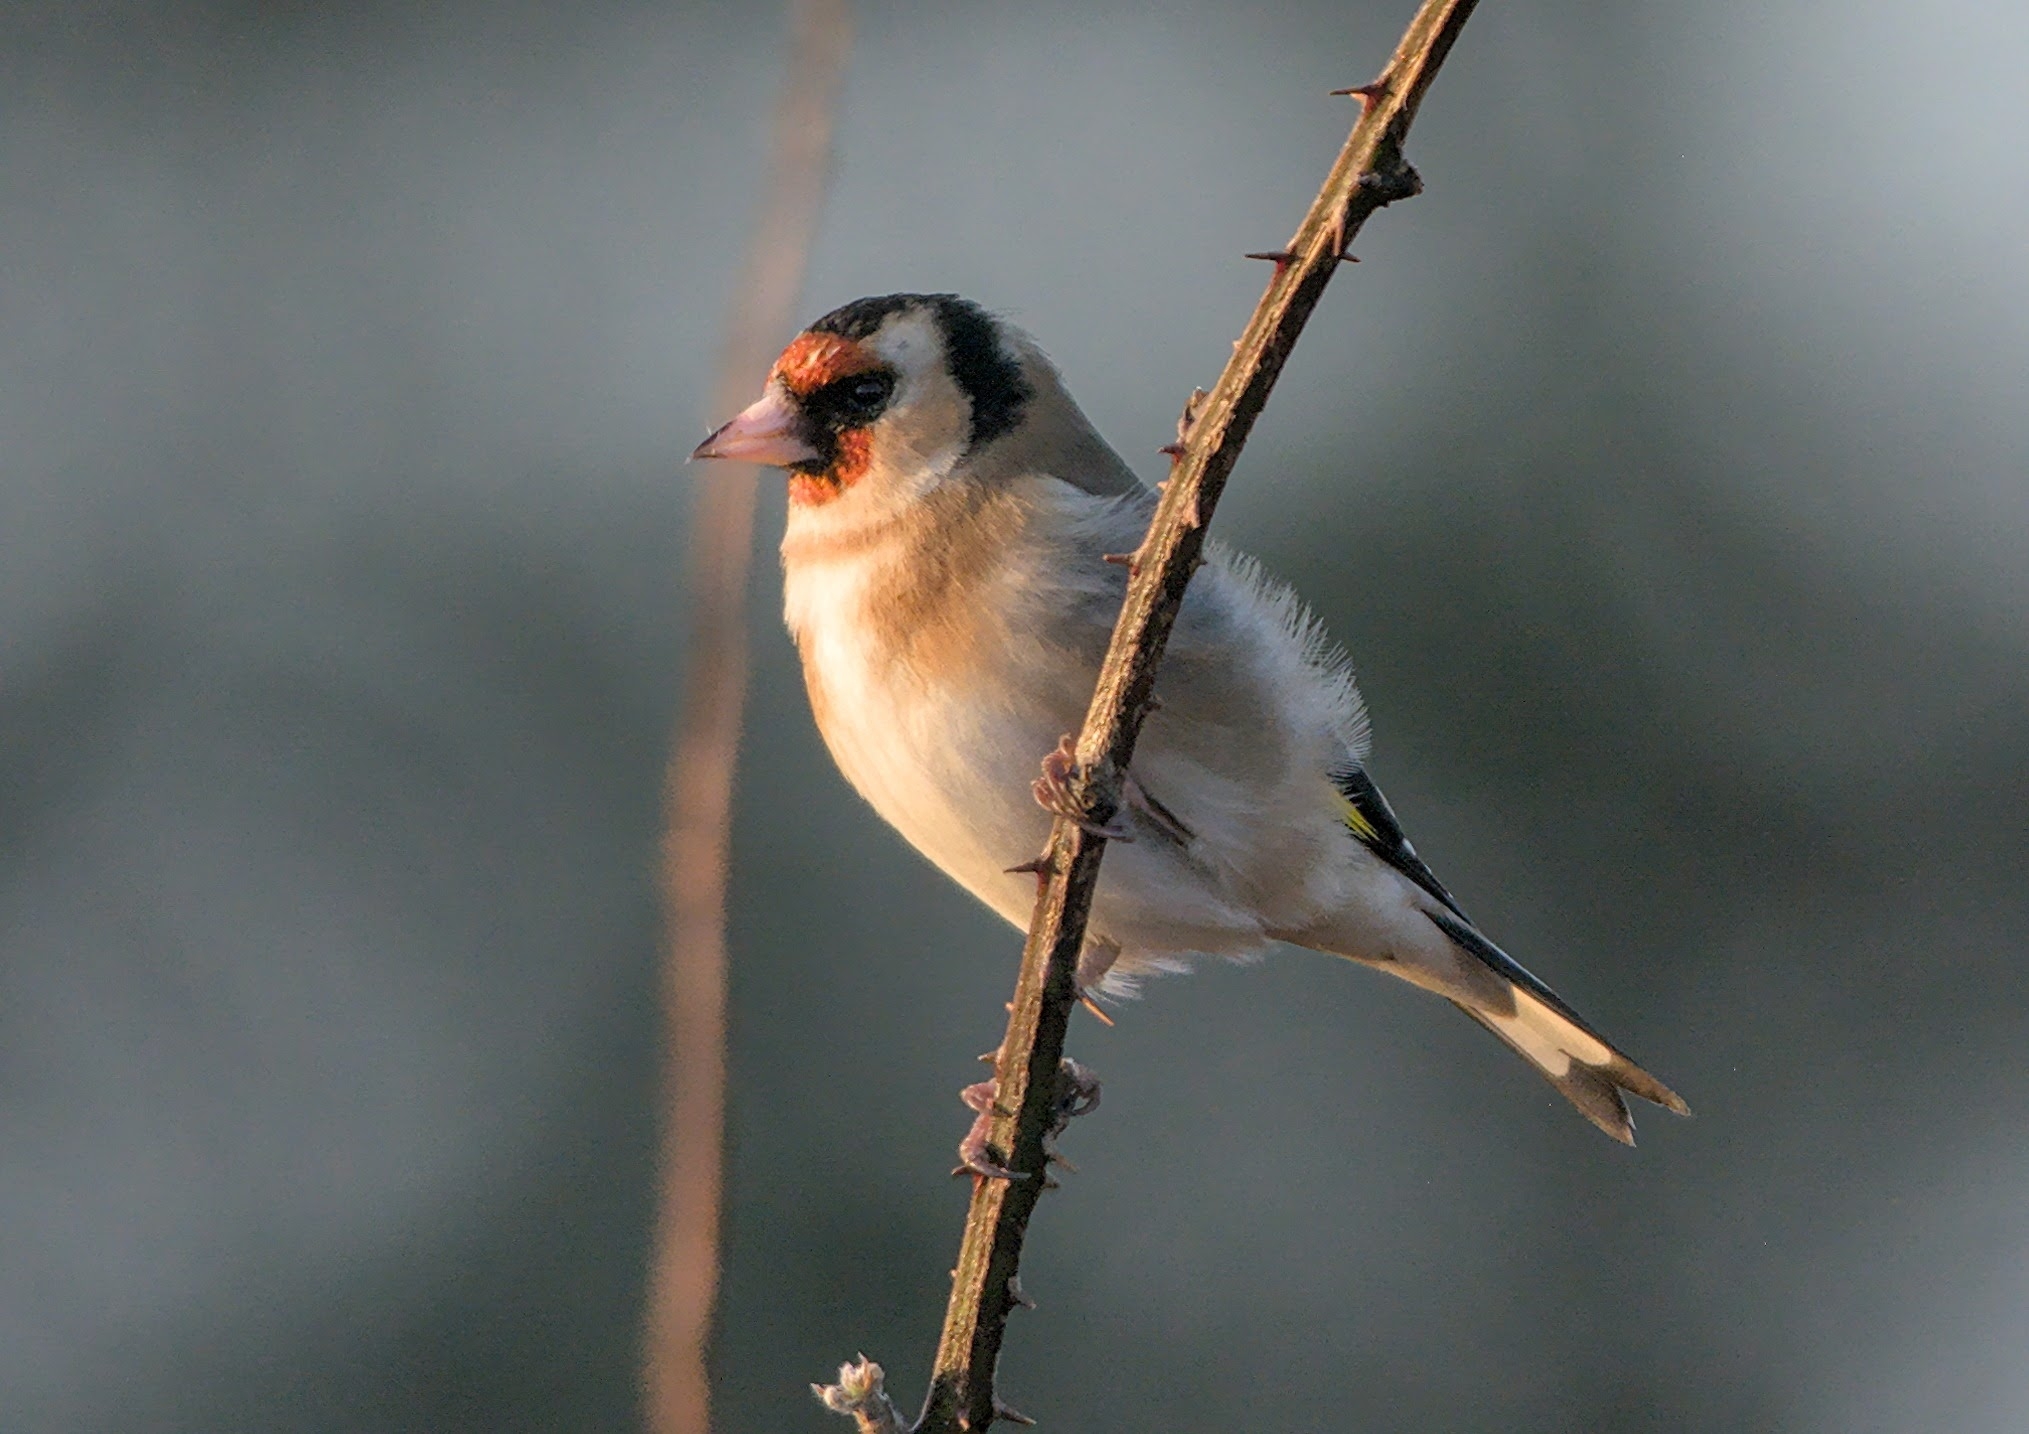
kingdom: Animalia
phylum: Chordata
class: Aves
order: Passeriformes
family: Fringillidae
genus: Carduelis
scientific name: Carduelis carduelis
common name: European goldfinch
